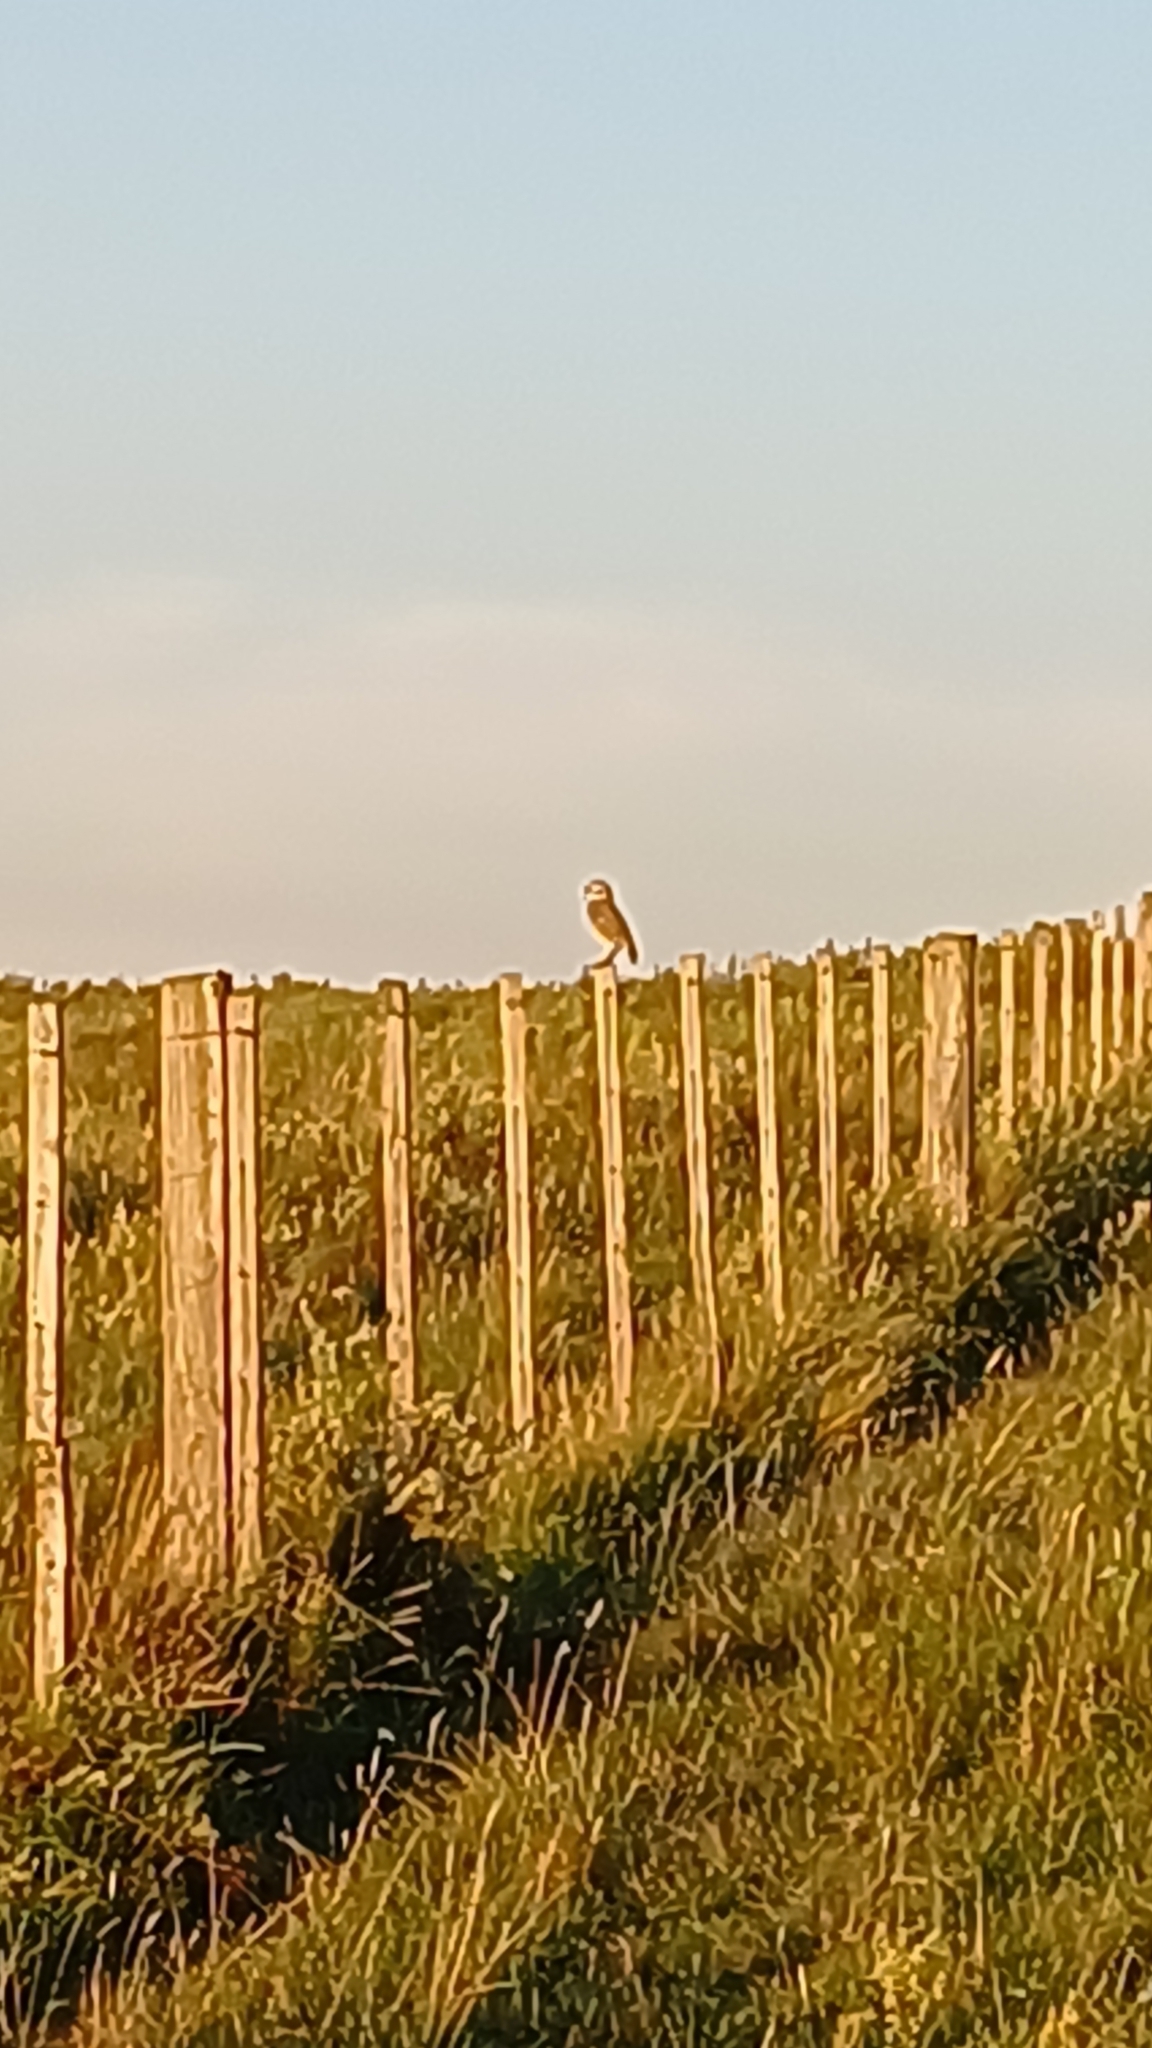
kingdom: Animalia
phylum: Chordata
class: Aves
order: Strigiformes
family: Strigidae
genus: Athene
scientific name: Athene cunicularia
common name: Burrowing owl
